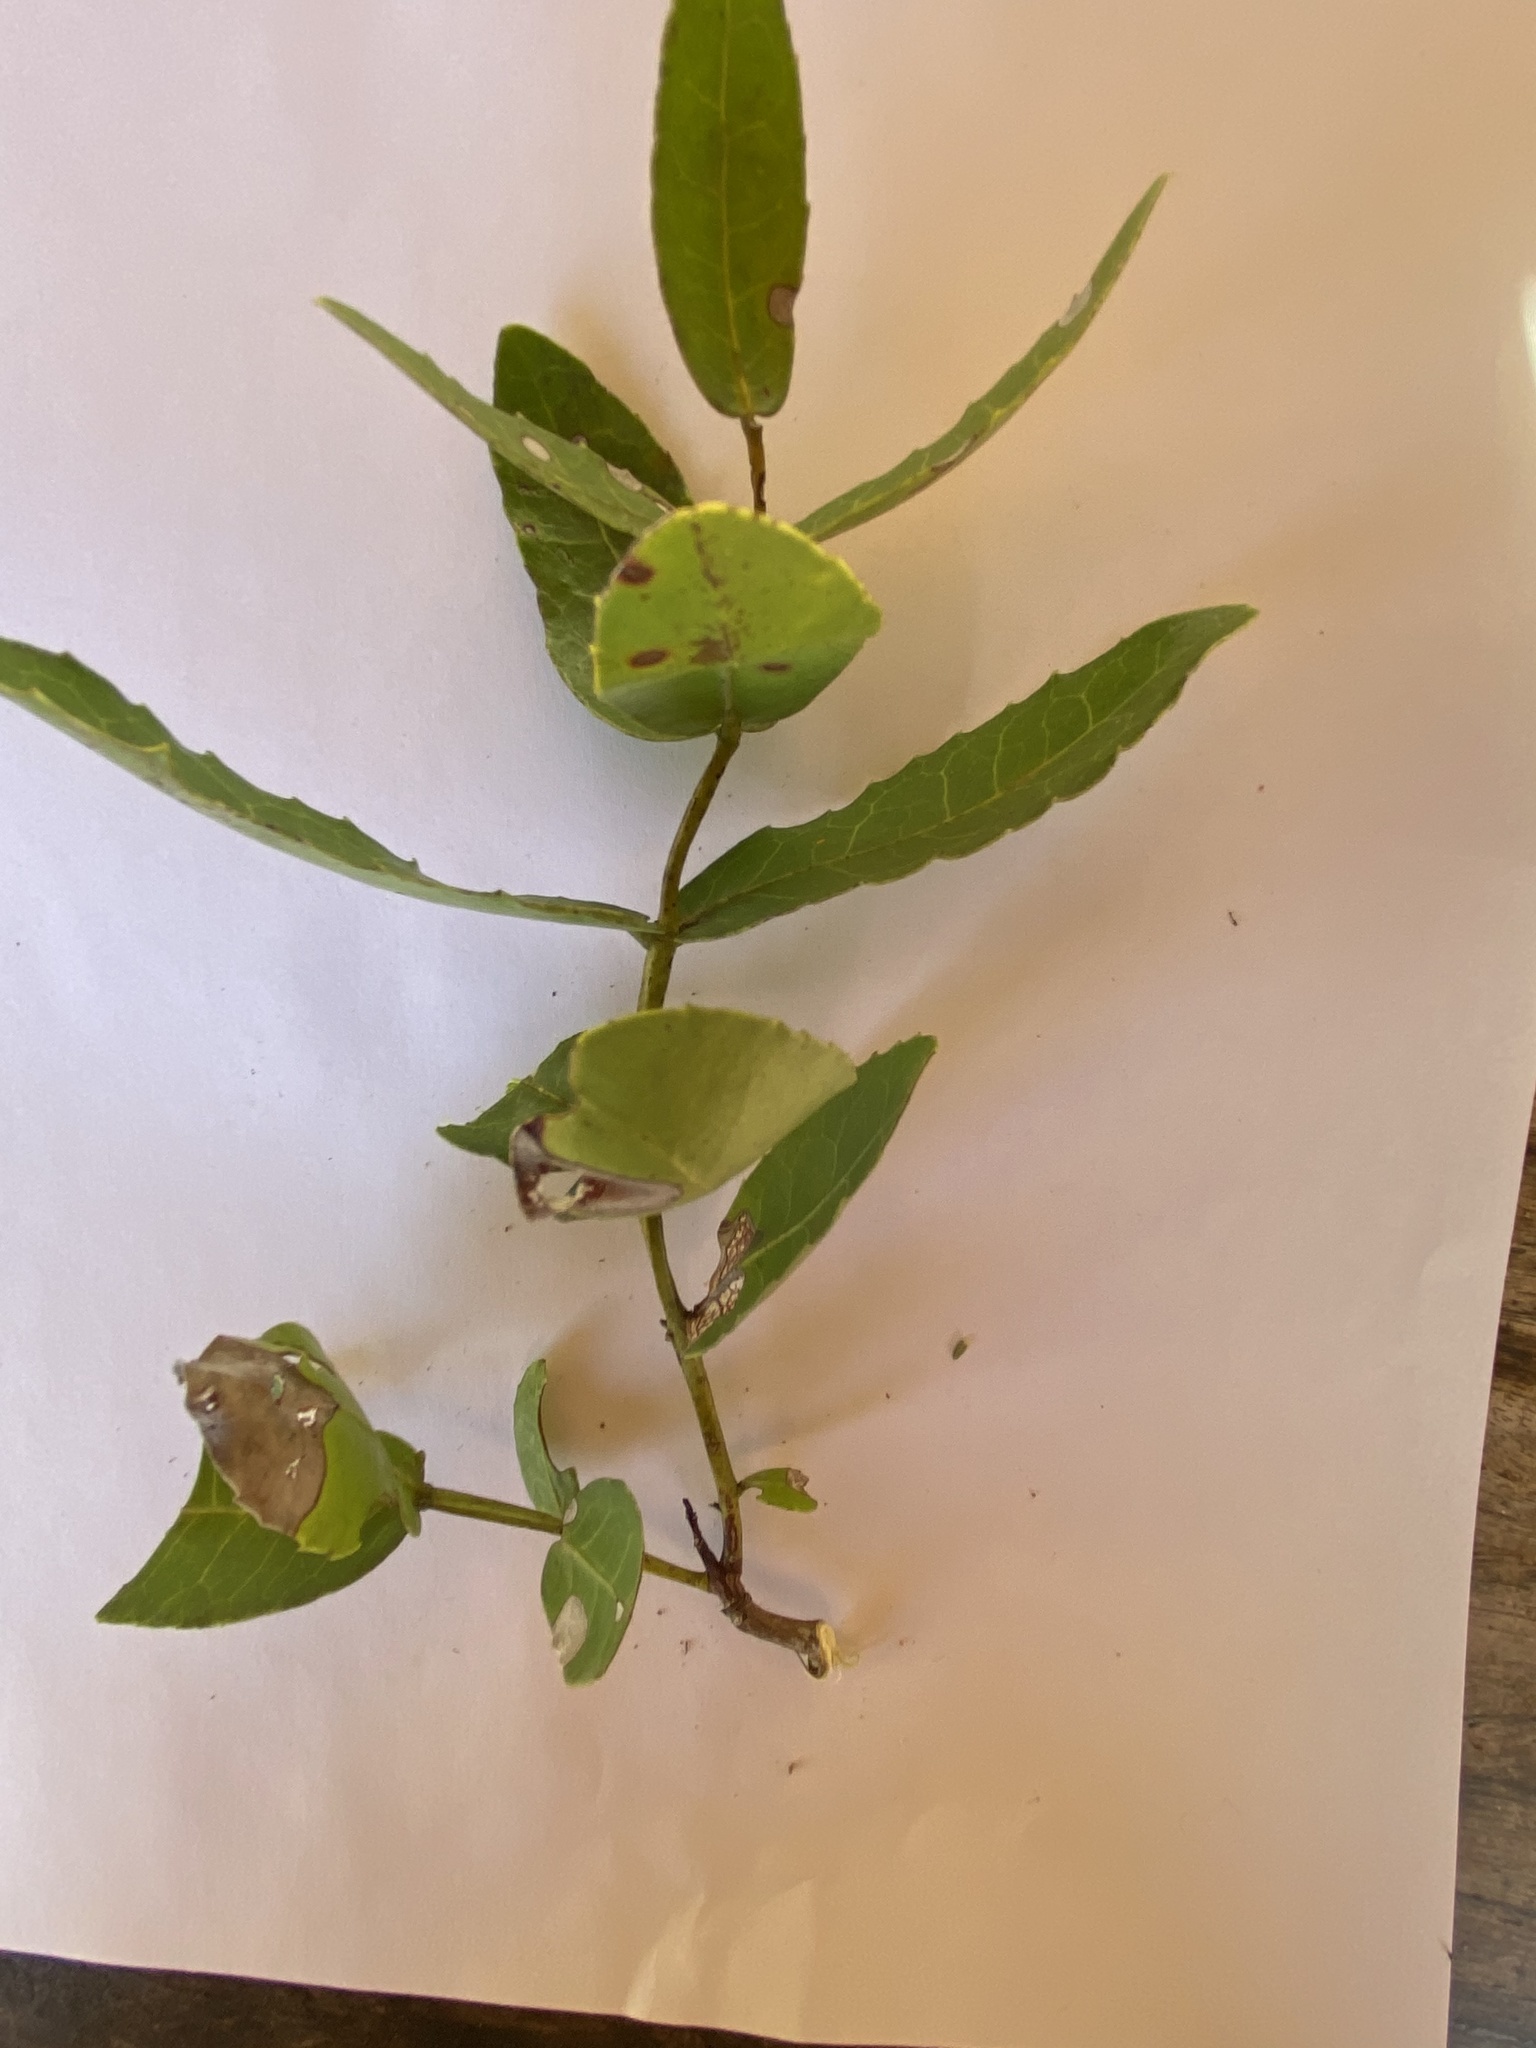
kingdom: Plantae
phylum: Tracheophyta
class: Magnoliopsida
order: Celastrales
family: Celastraceae
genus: Lauridia
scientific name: Lauridia tetragona
